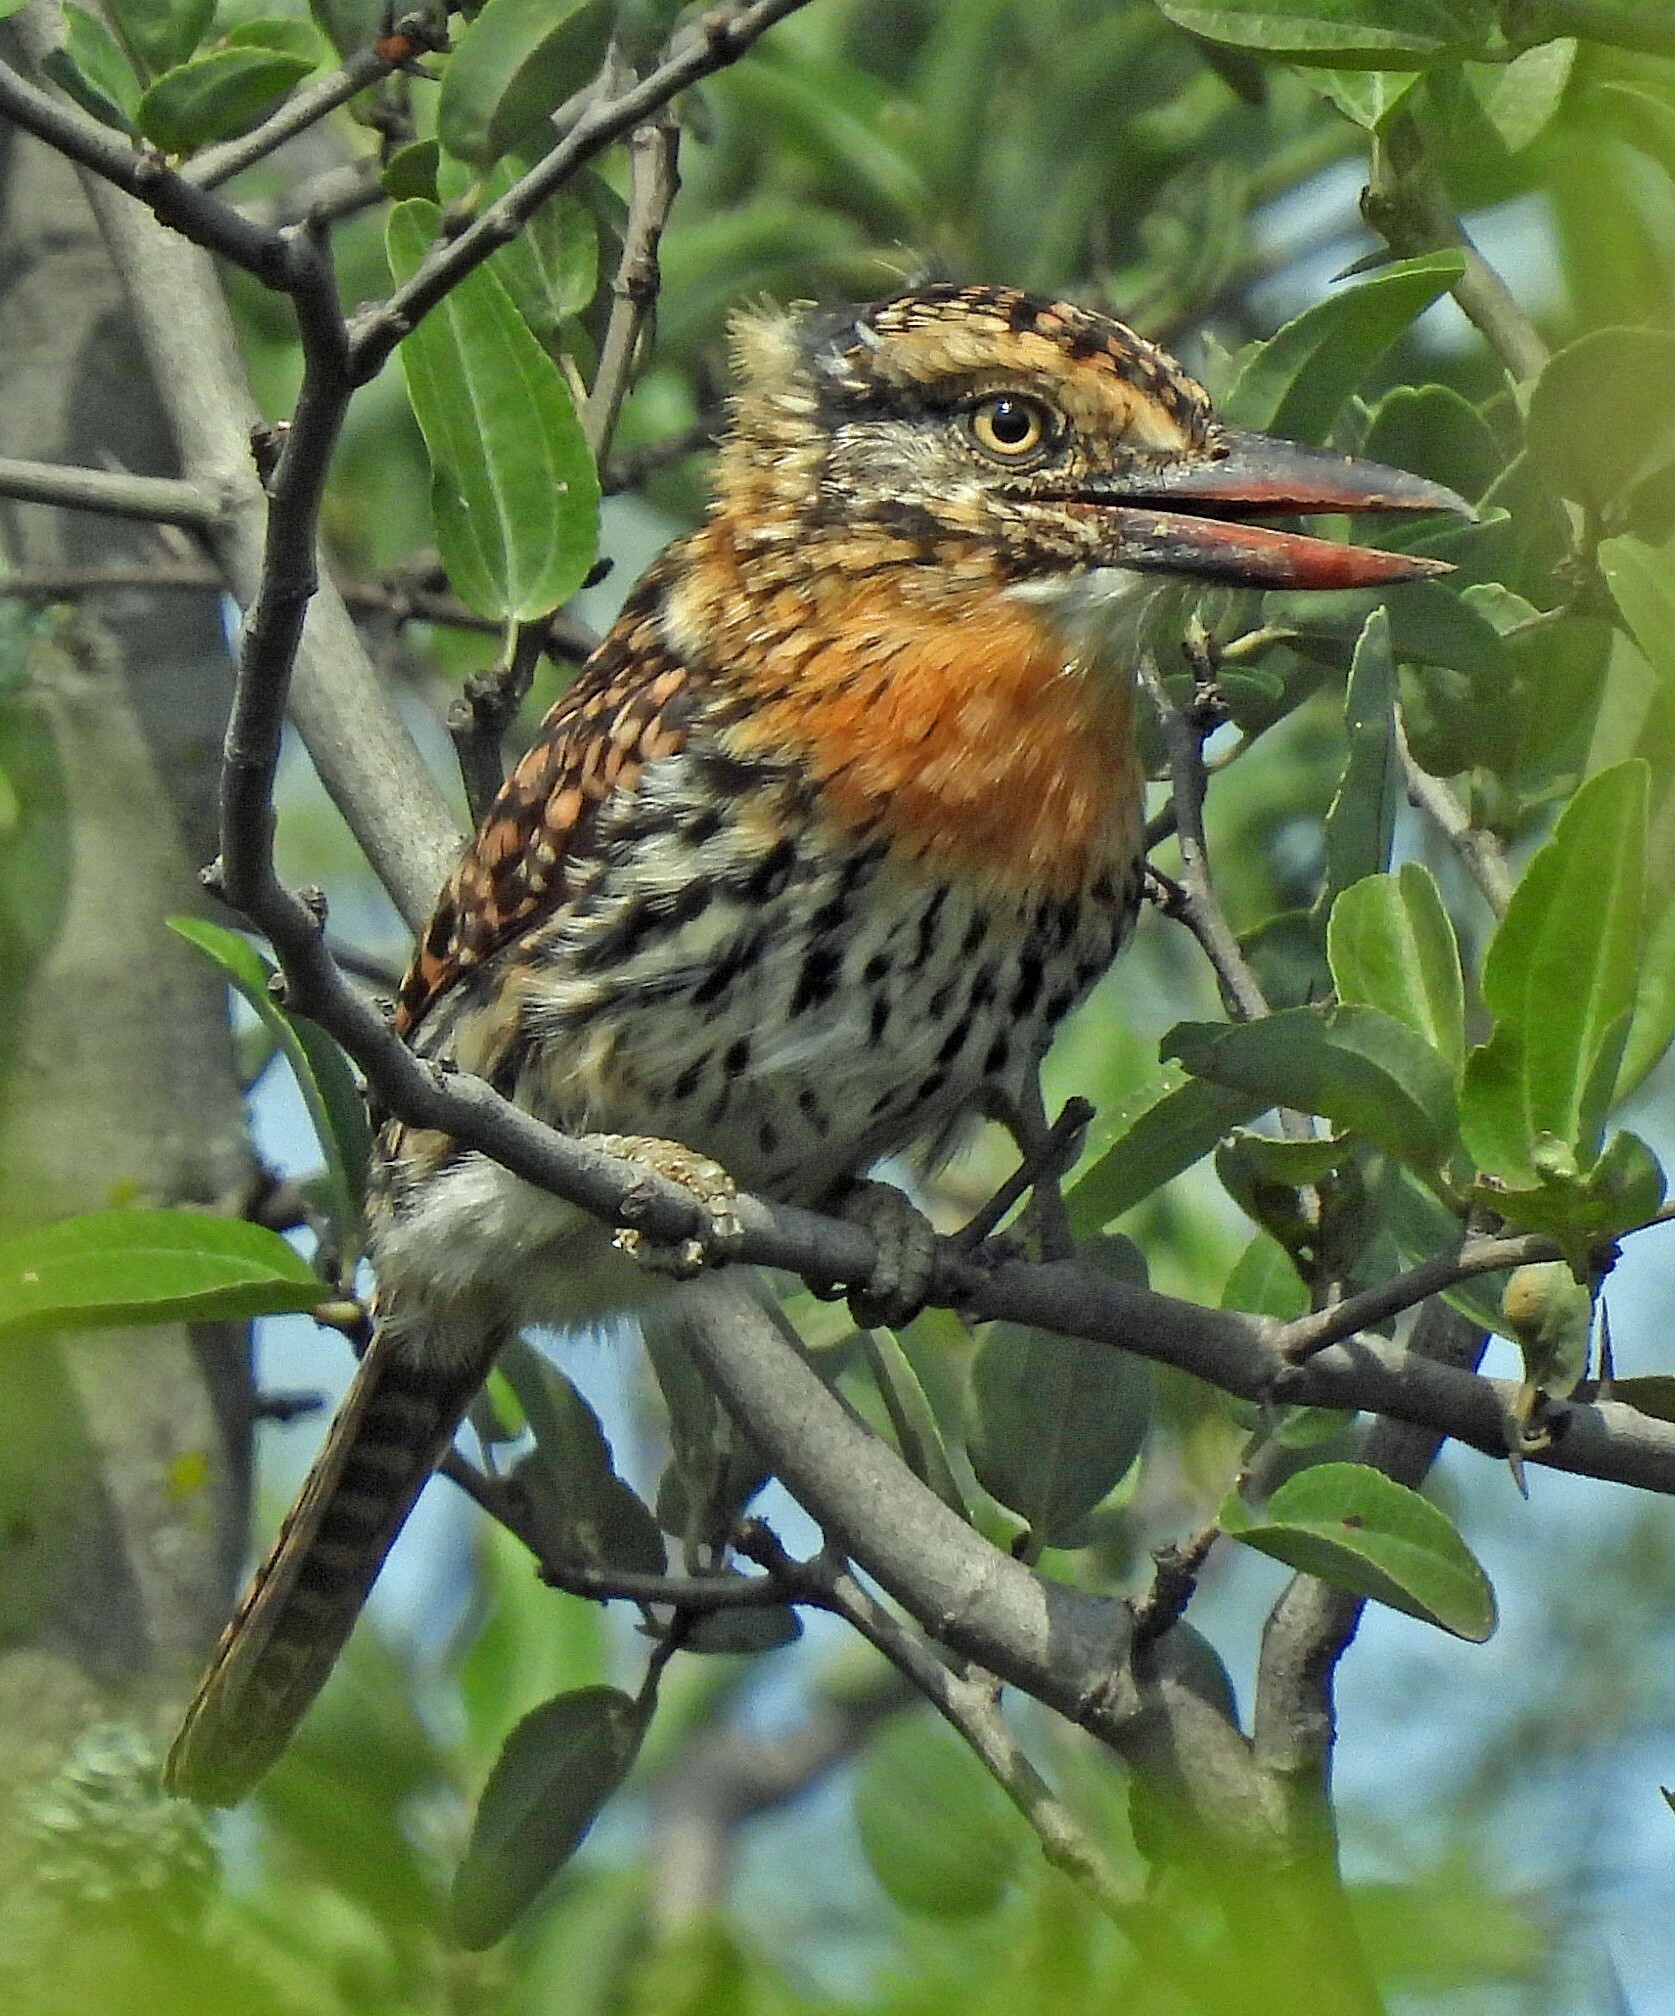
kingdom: Animalia
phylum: Chordata
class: Aves
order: Piciformes
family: Bucconidae
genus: Nystalus
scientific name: Nystalus maculatus
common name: Caatinga puffbird
